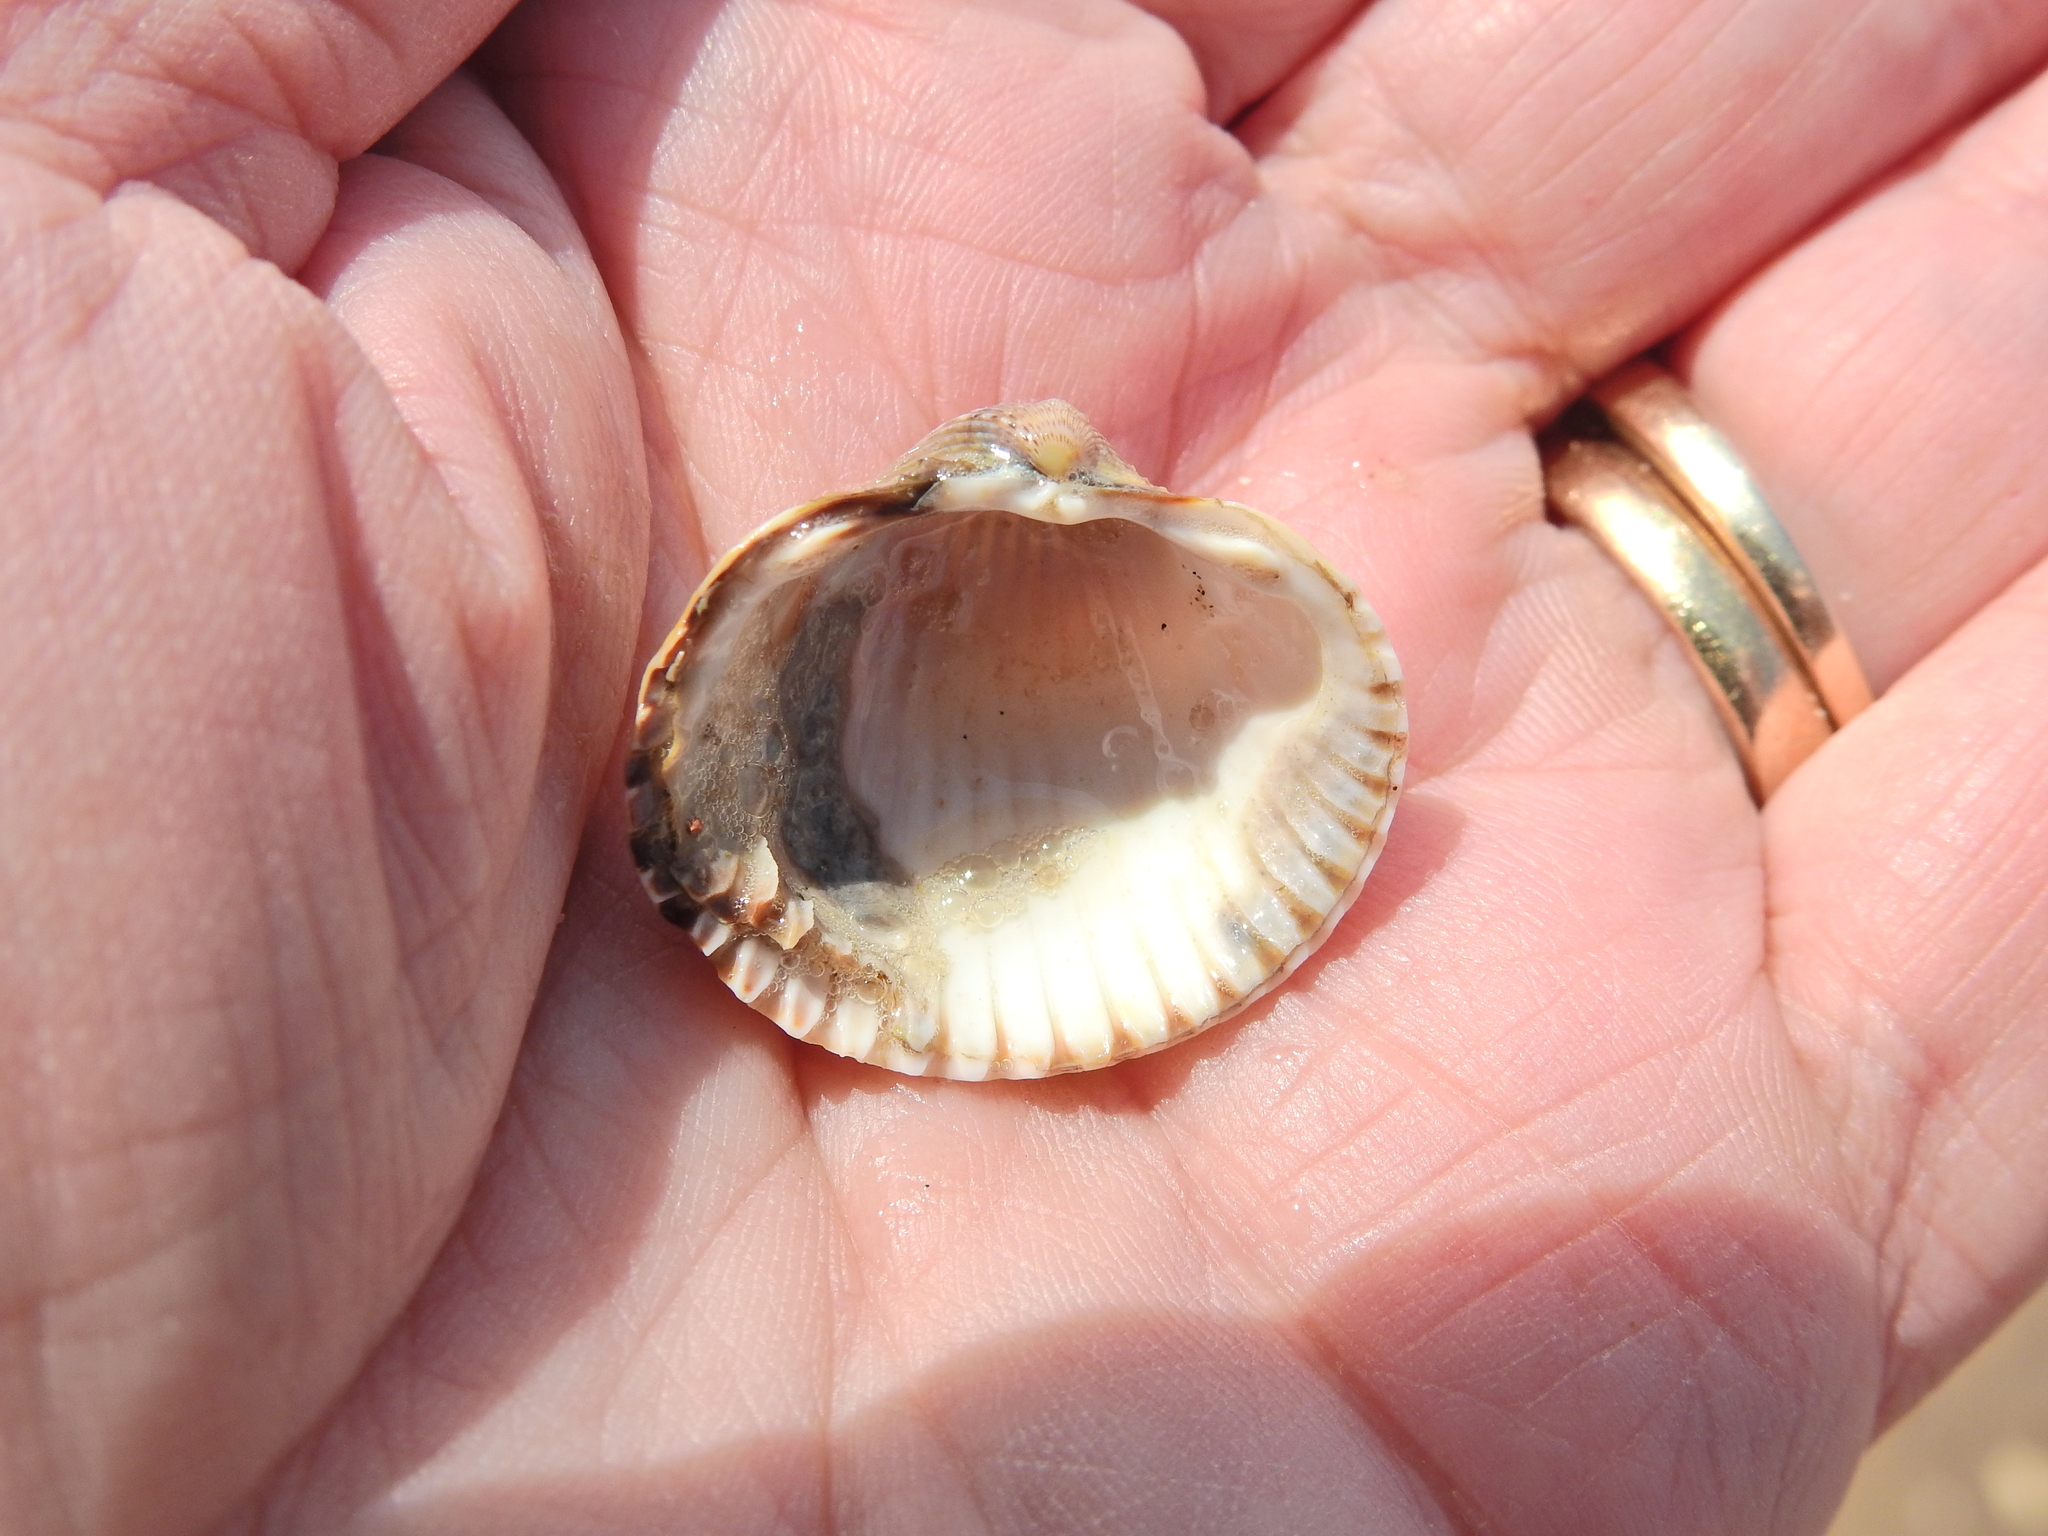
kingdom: Animalia
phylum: Mollusca
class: Bivalvia
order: Cardiida
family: Cardiidae
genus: Cerastoderma
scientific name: Cerastoderma edule
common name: Common cockle
